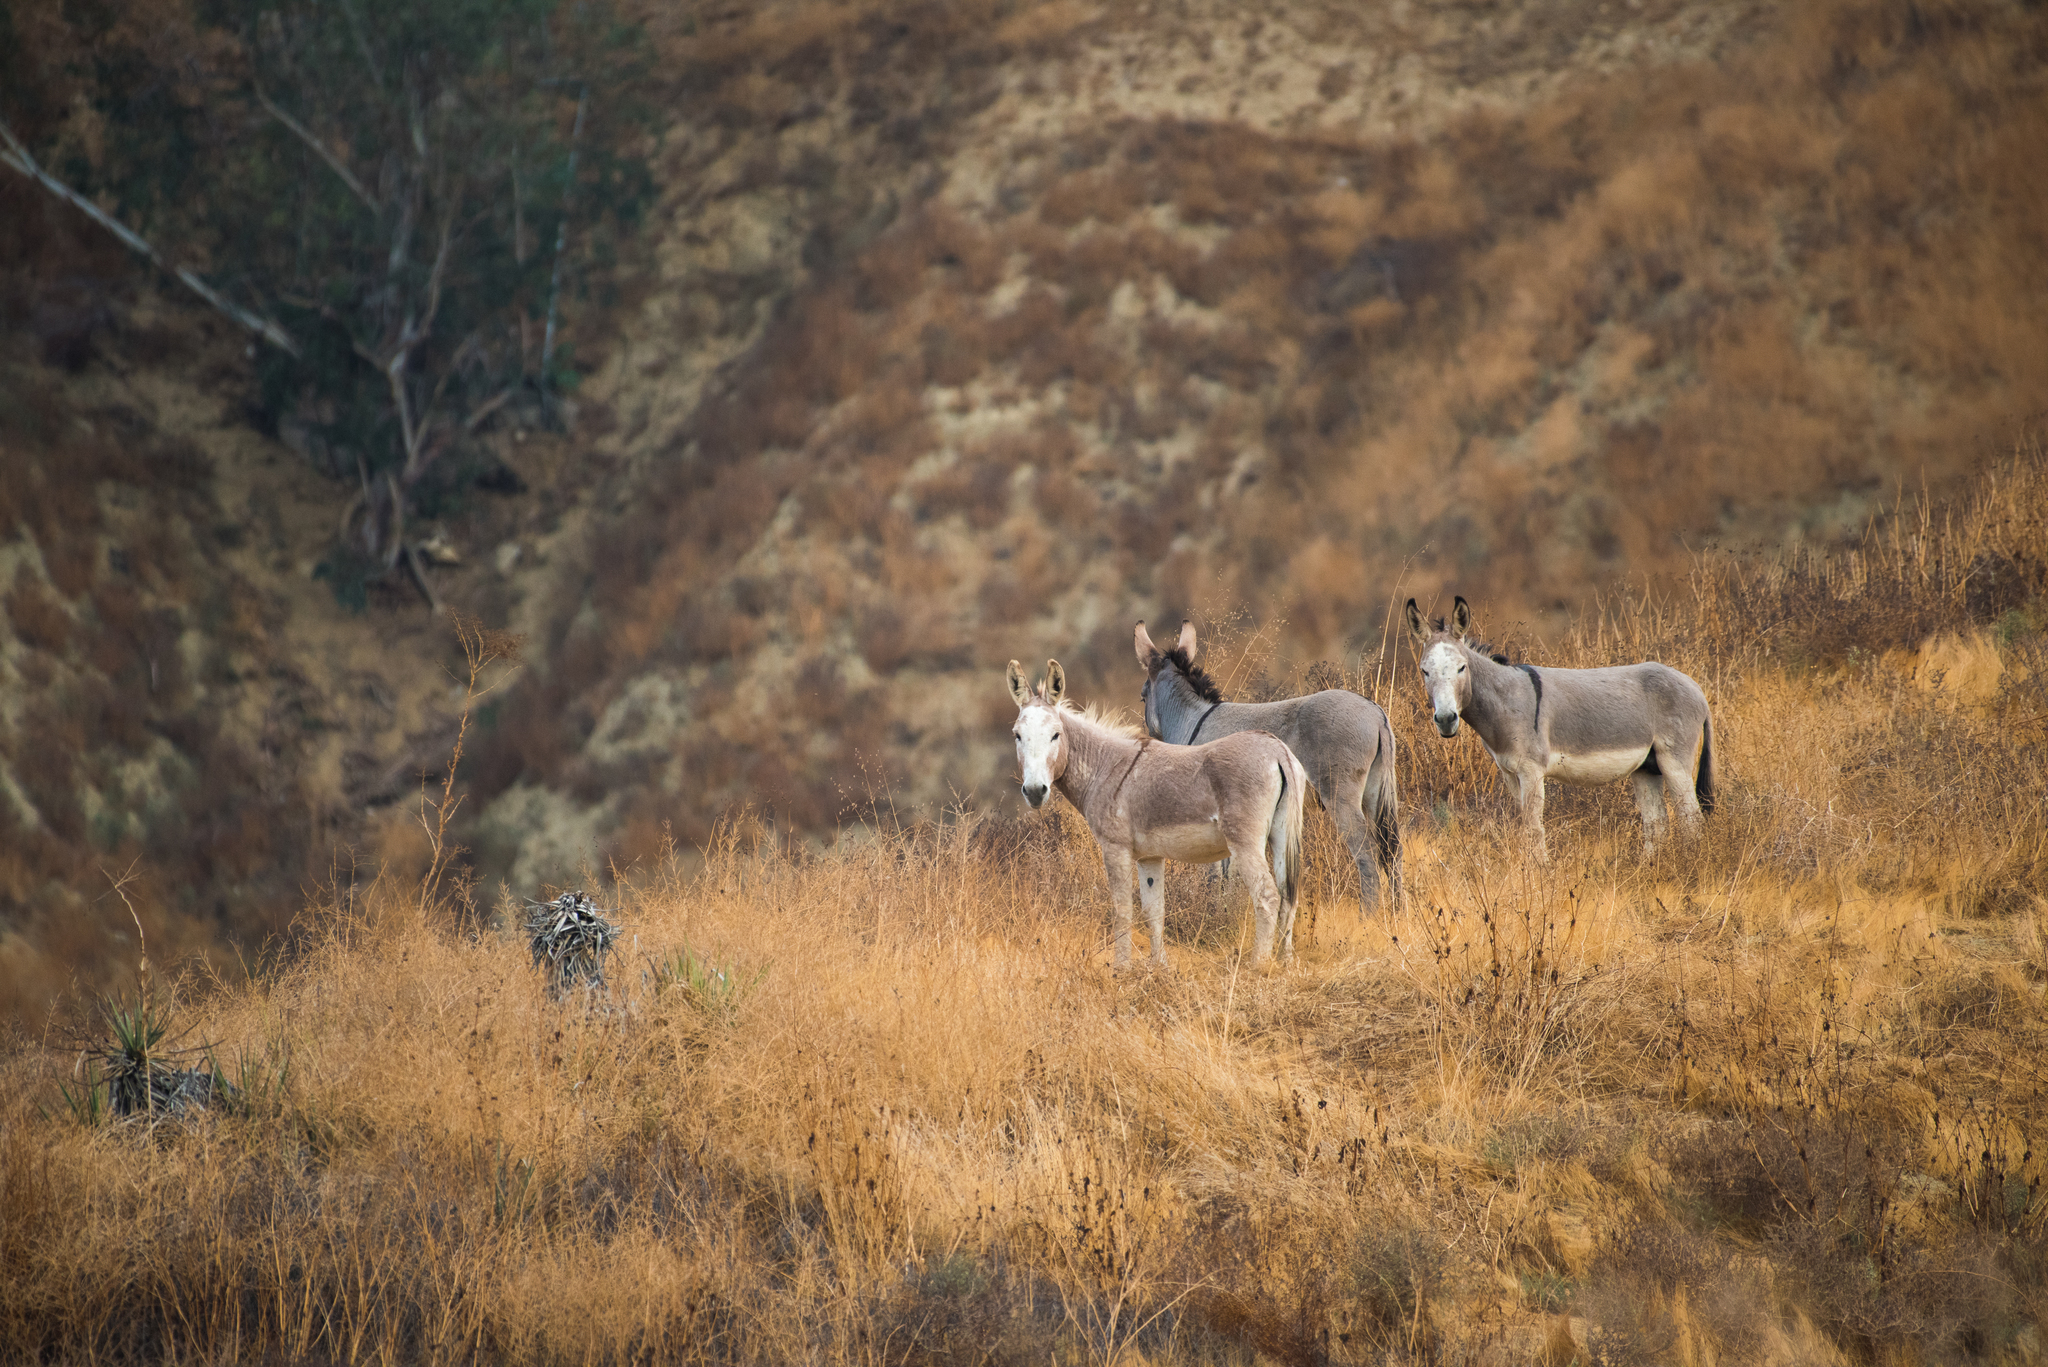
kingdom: Animalia
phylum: Chordata
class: Mammalia
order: Perissodactyla
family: Equidae
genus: Equus
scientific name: Equus asinus
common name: Ass
